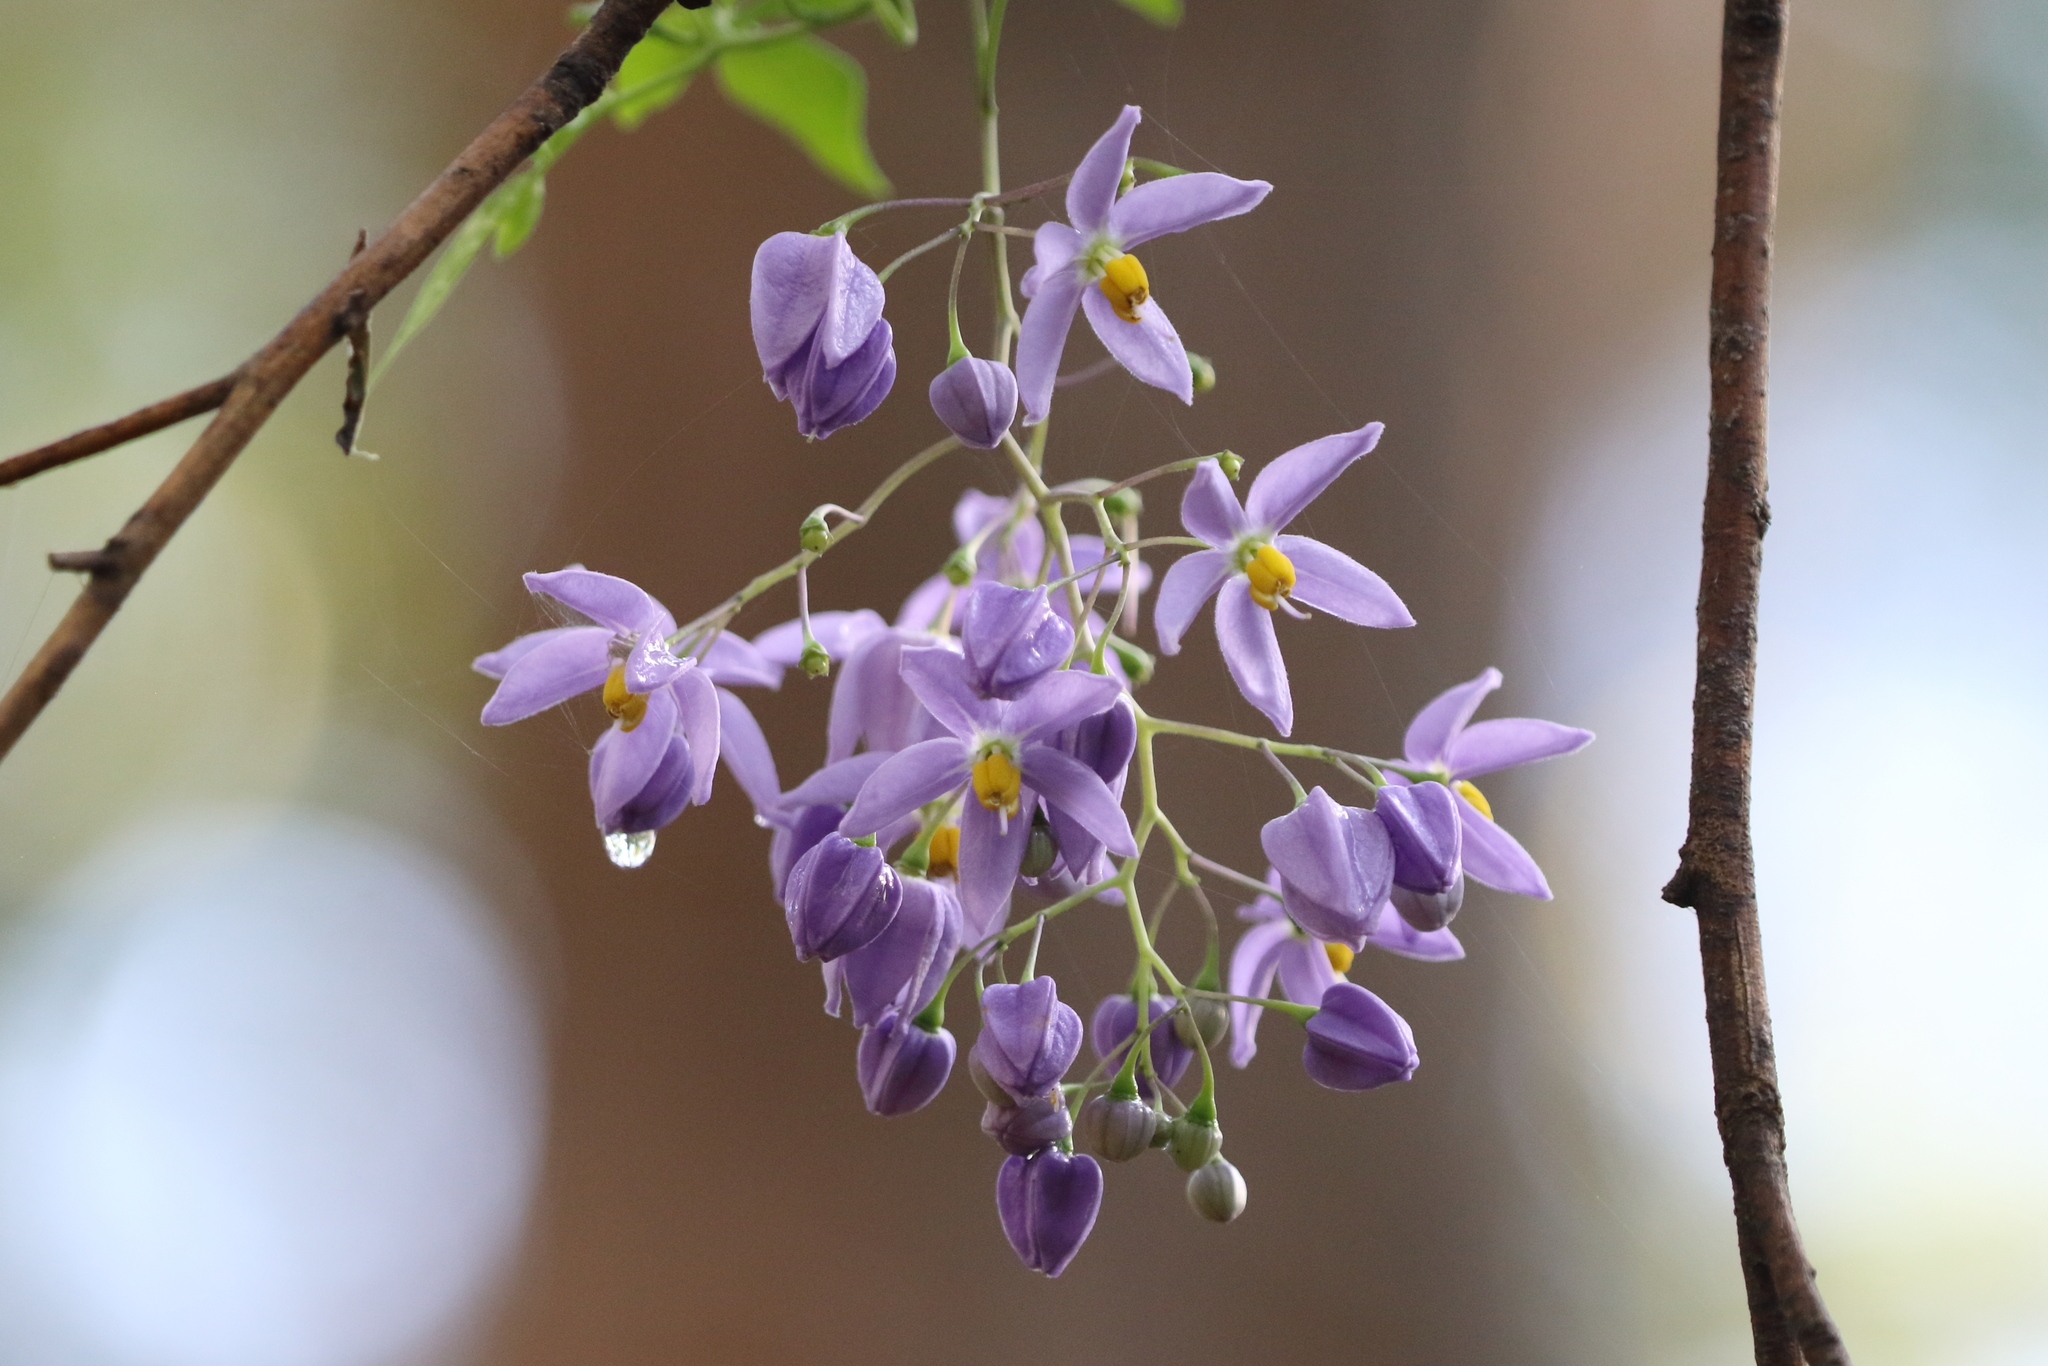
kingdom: Plantae
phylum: Tracheophyta
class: Magnoliopsida
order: Solanales
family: Solanaceae
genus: Solanum
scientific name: Solanum seaforthianum
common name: Brazilian nightshade
